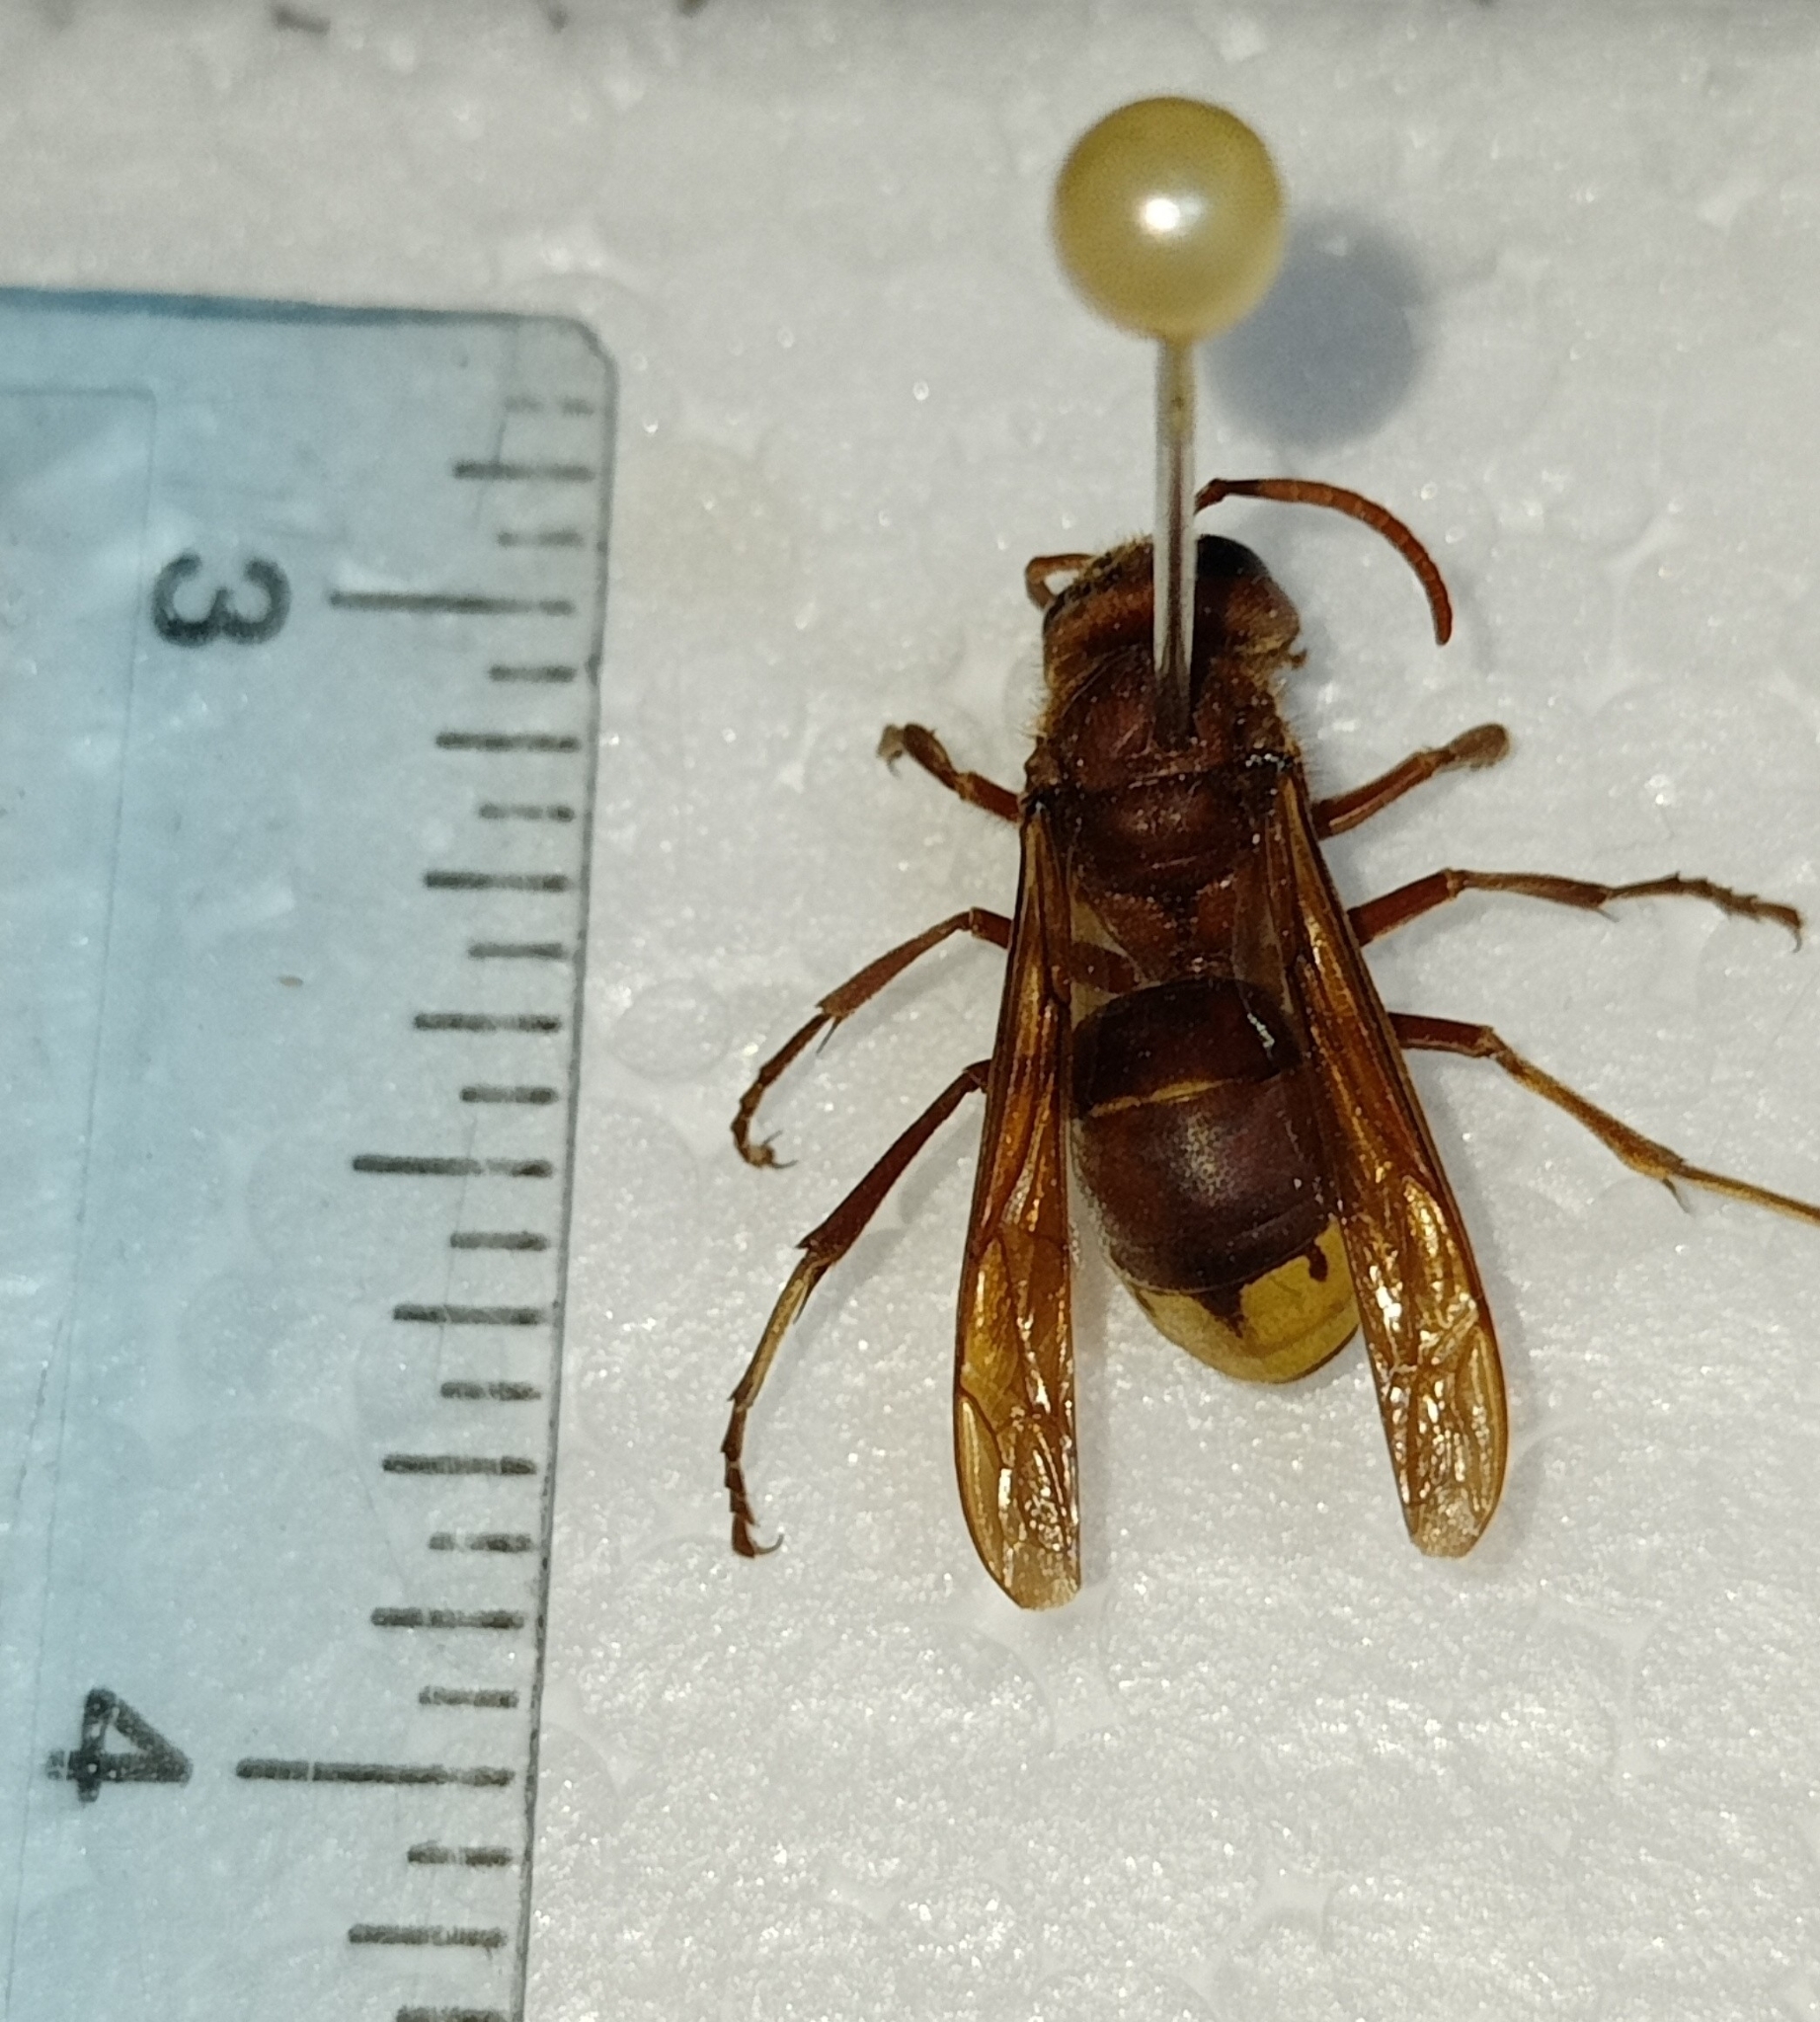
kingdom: Animalia
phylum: Arthropoda
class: Insecta
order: Hymenoptera
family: Vespidae
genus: Vespa
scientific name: Vespa orientalis
